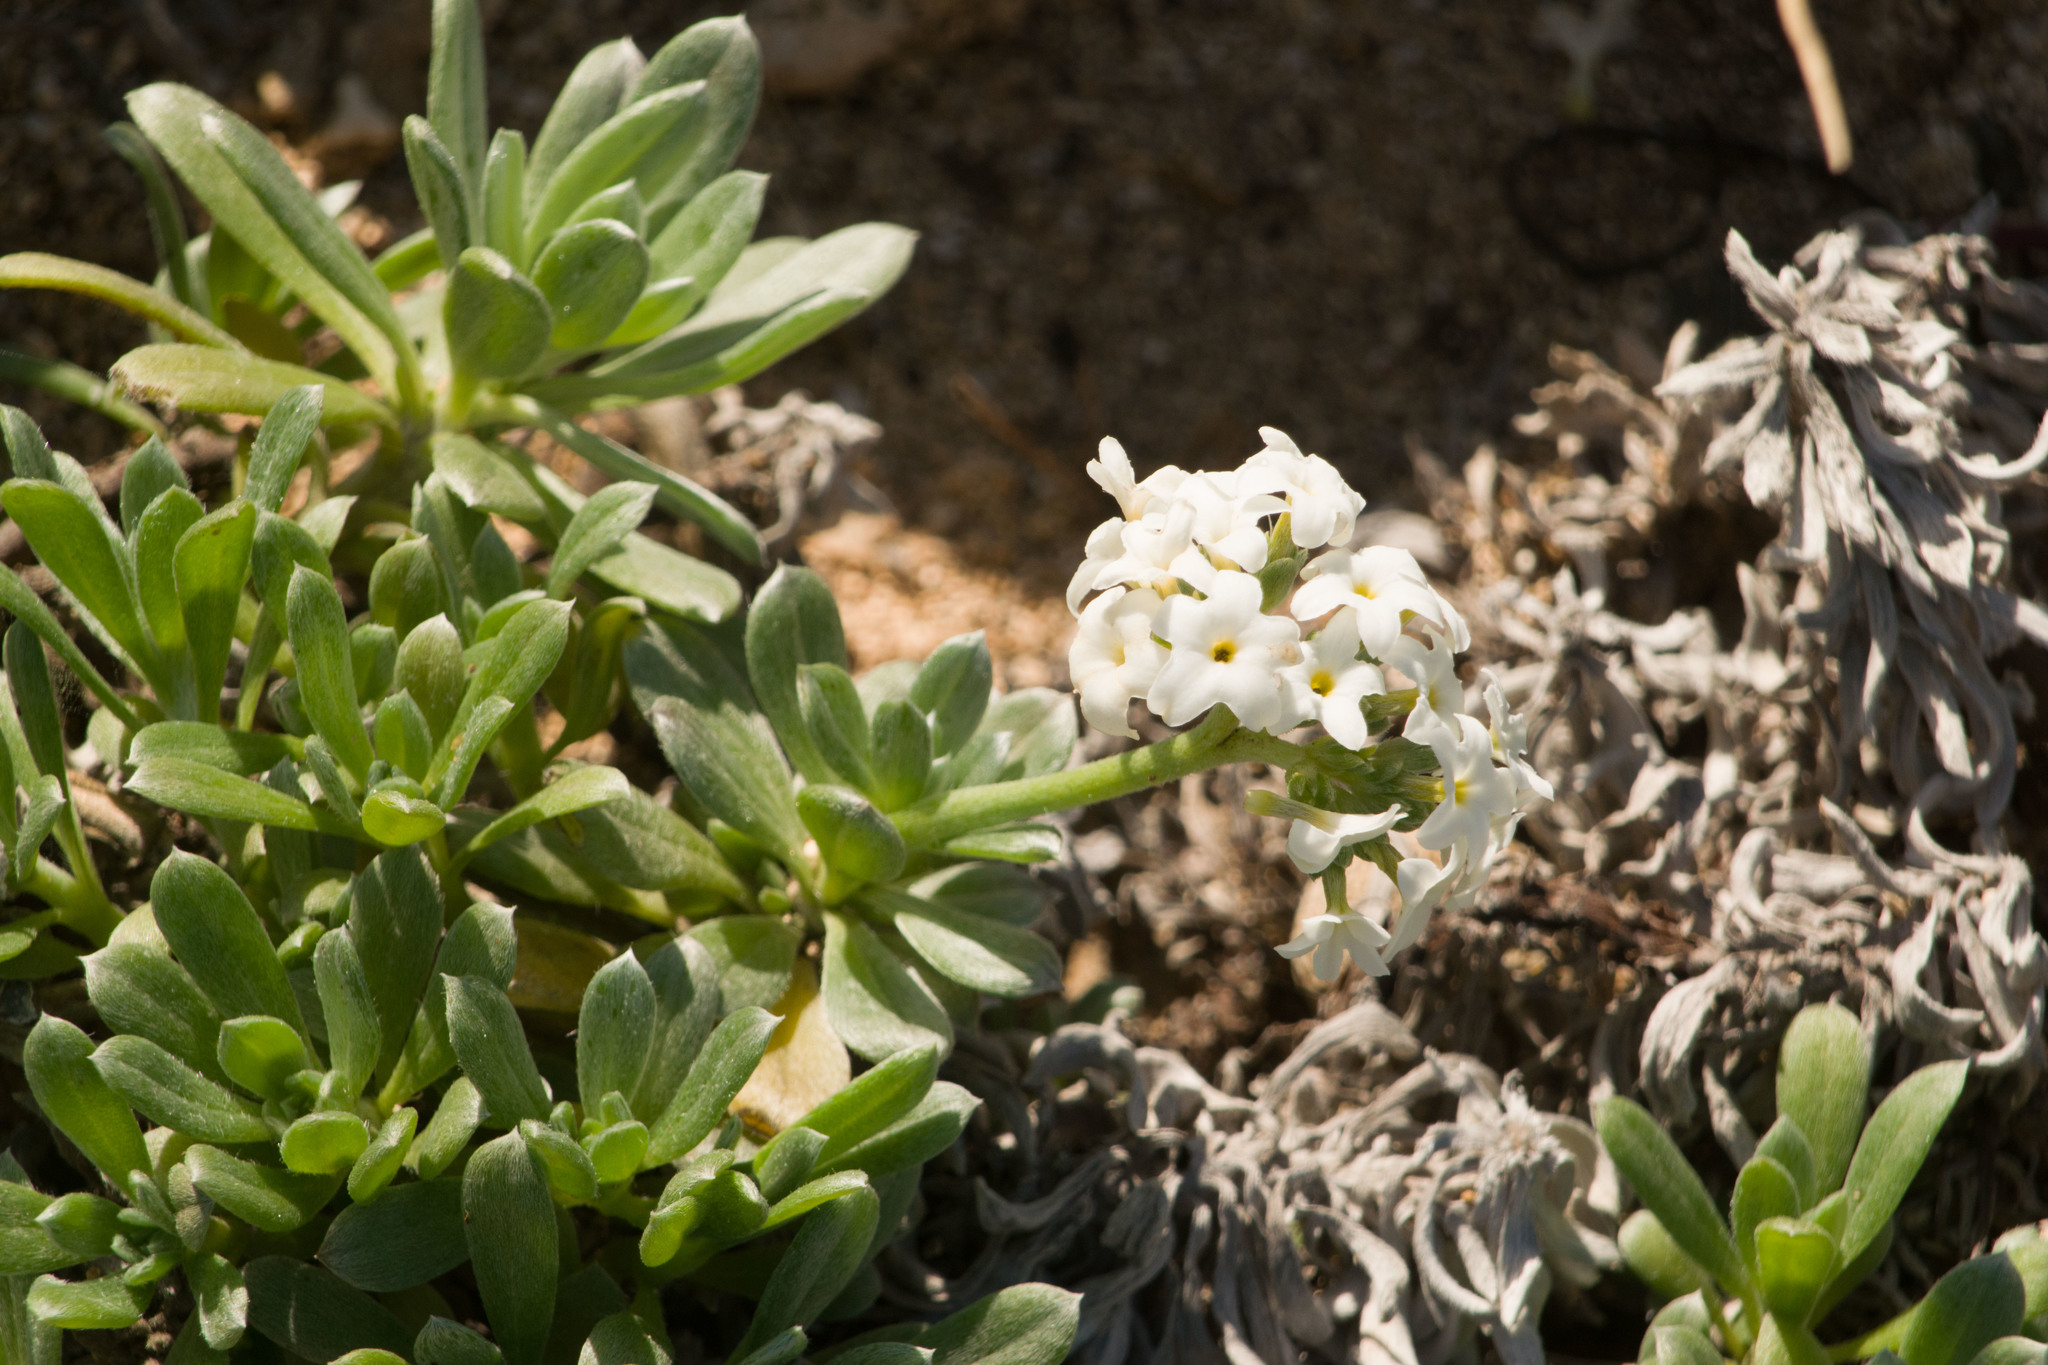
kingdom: Plantae
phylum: Tracheophyta
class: Magnoliopsida
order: Boraginales
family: Heliotropiaceae
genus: Heliotropium
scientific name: Heliotropium anomalum
